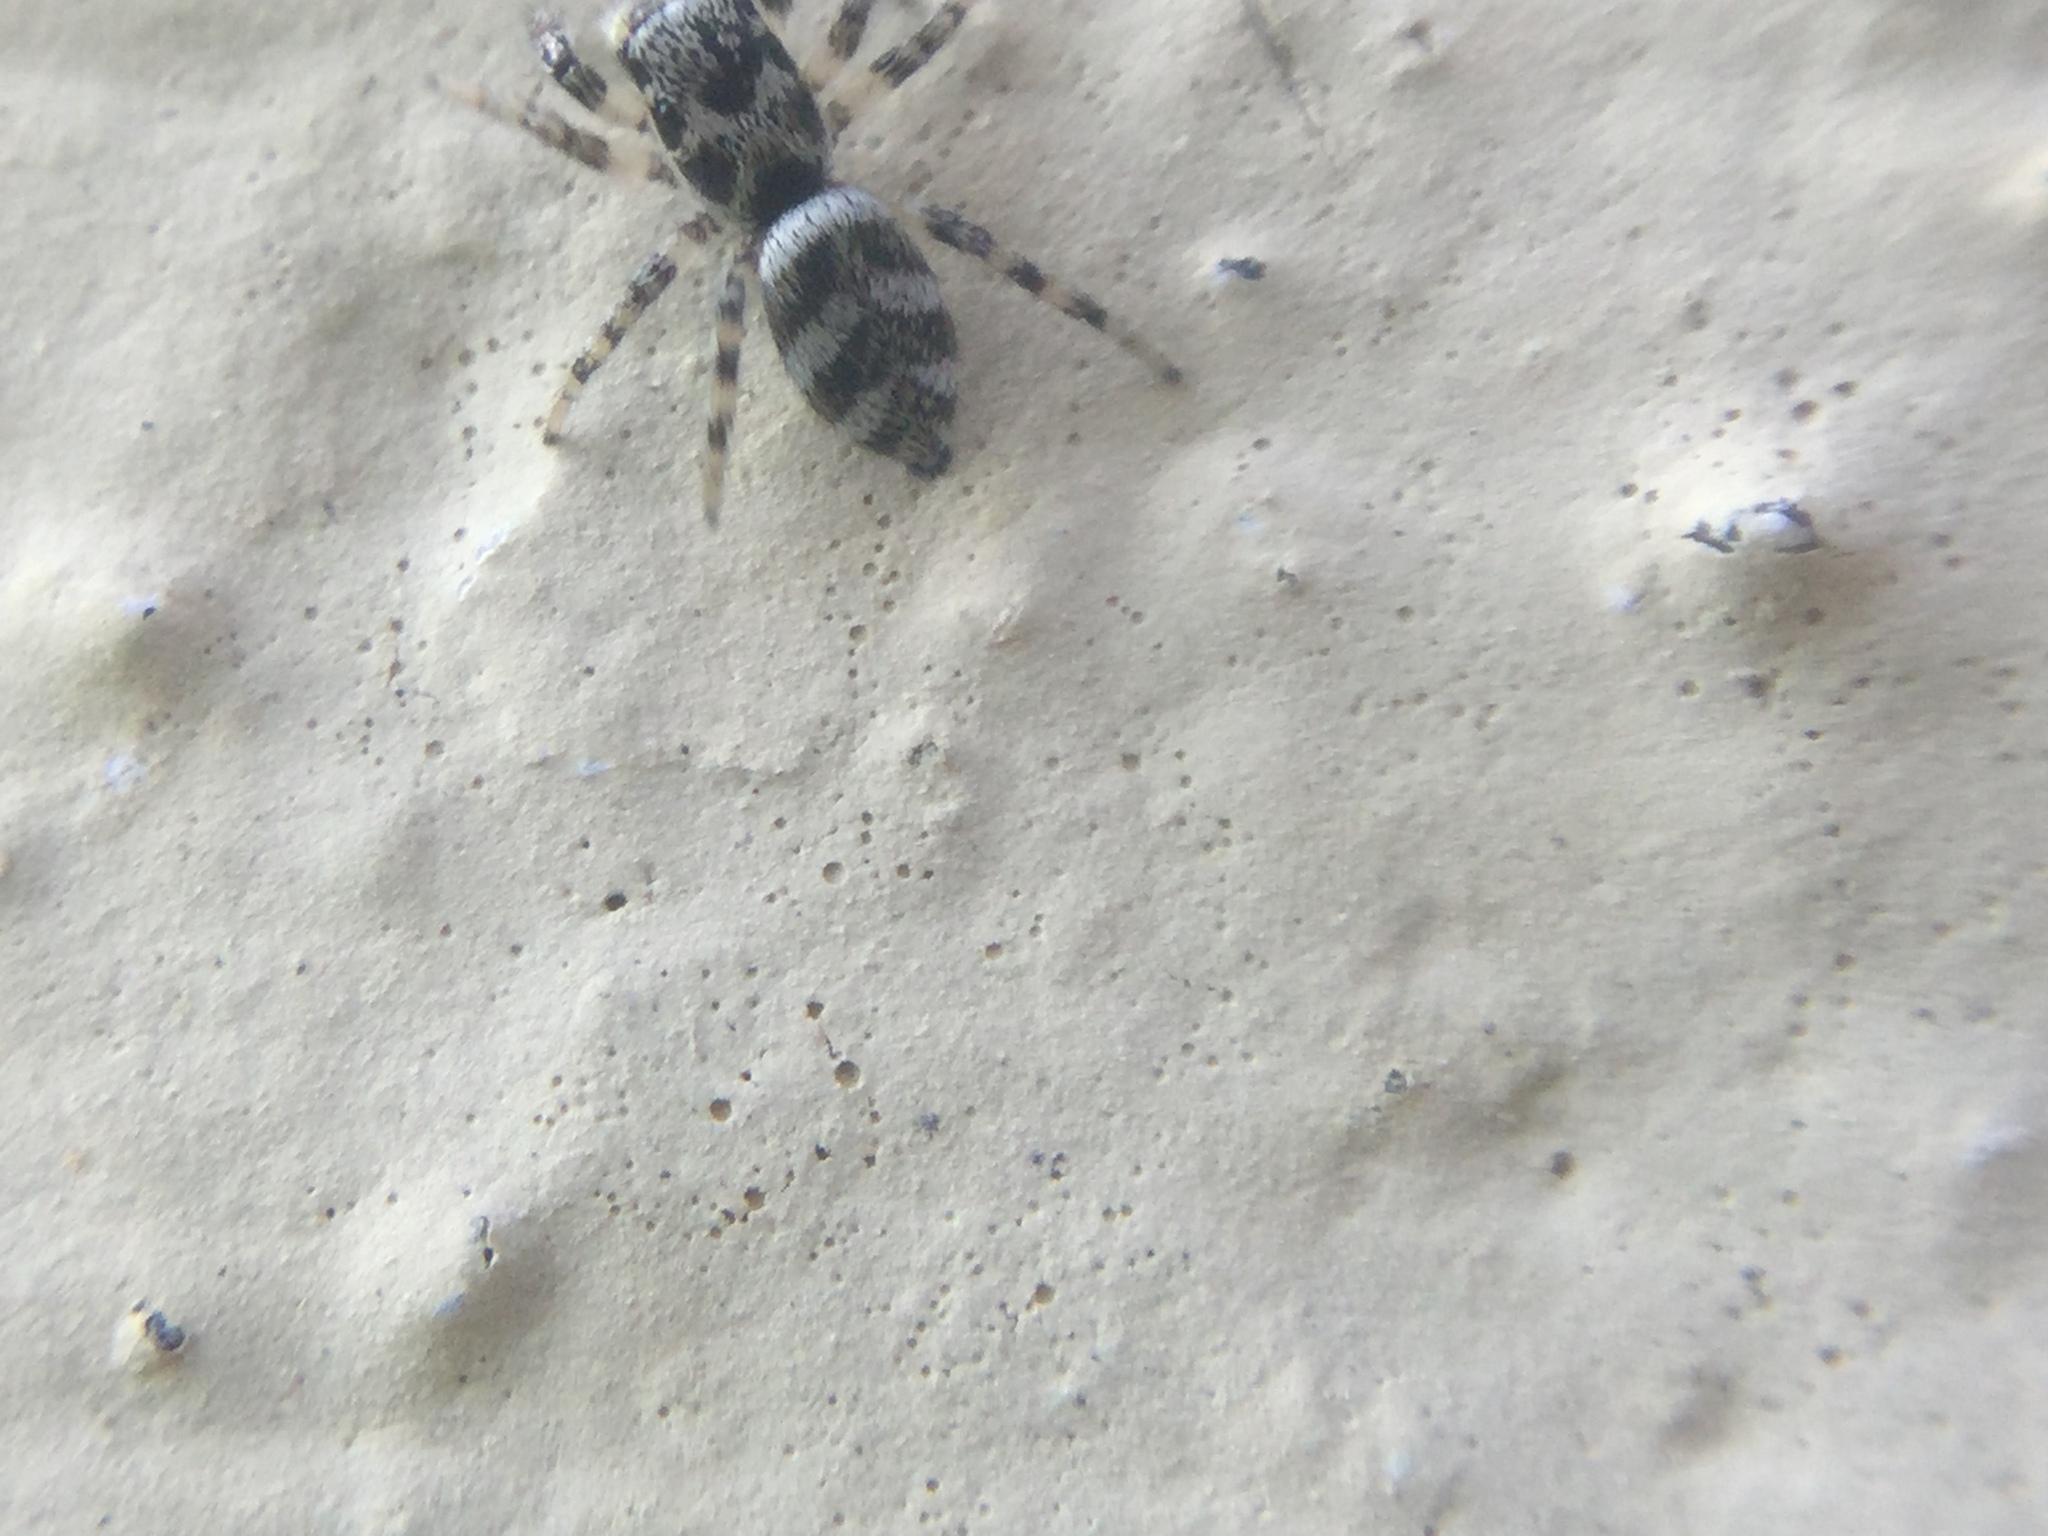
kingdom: Animalia
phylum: Arthropoda
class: Arachnida
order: Araneae
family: Salticidae
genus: Salticus
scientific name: Salticus scenicus
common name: Zebra jumper
